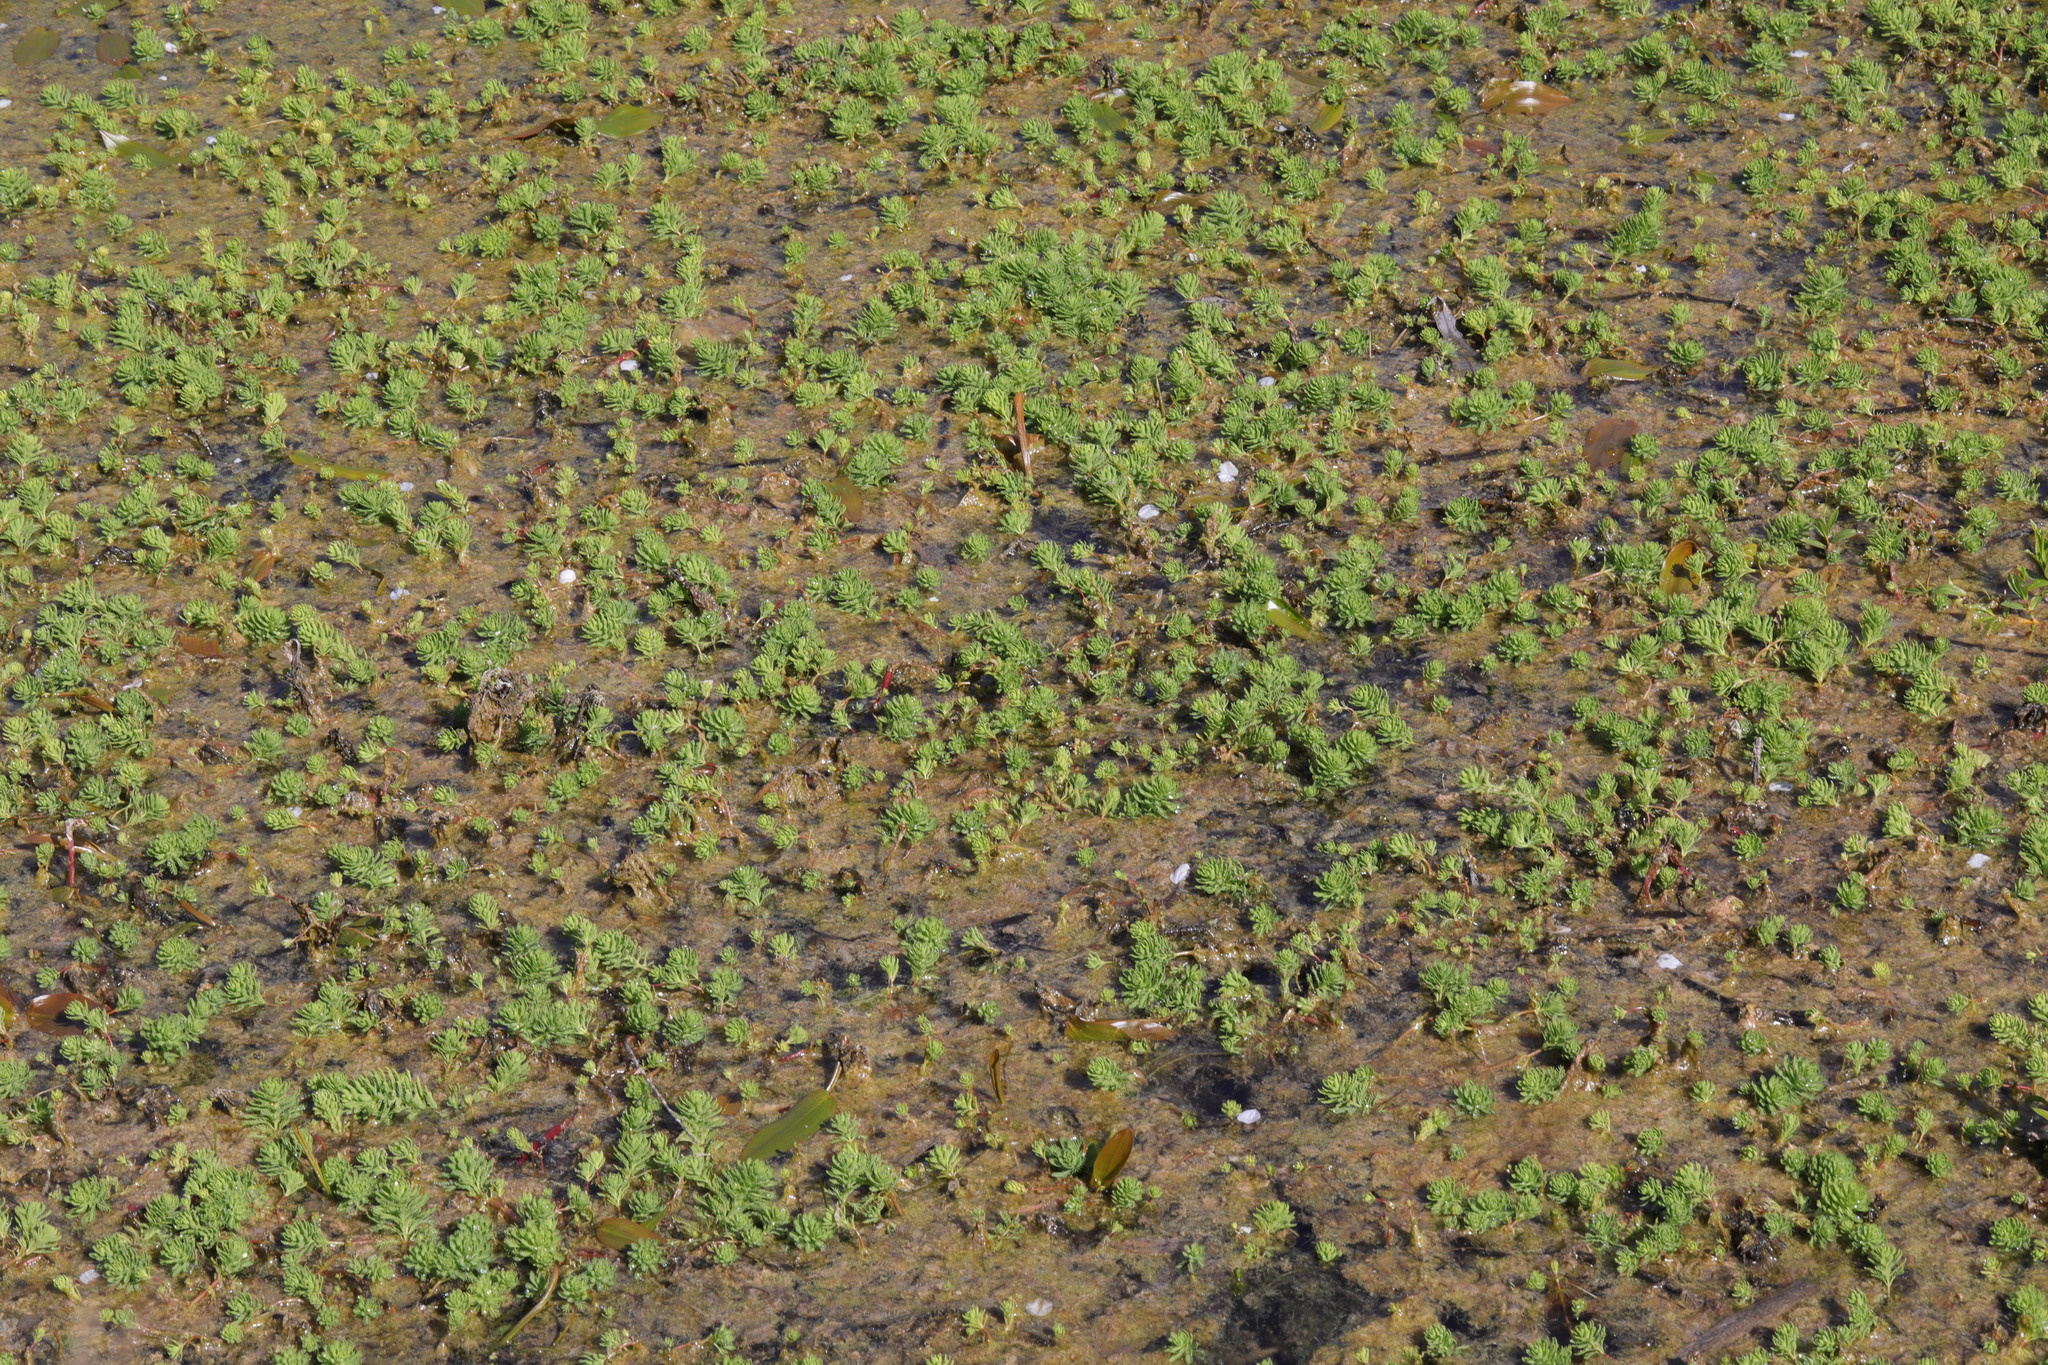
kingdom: Plantae
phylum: Tracheophyta
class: Magnoliopsida
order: Saxifragales
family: Haloragaceae
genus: Myriophyllum
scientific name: Myriophyllum aquaticum
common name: Parrot's feather
